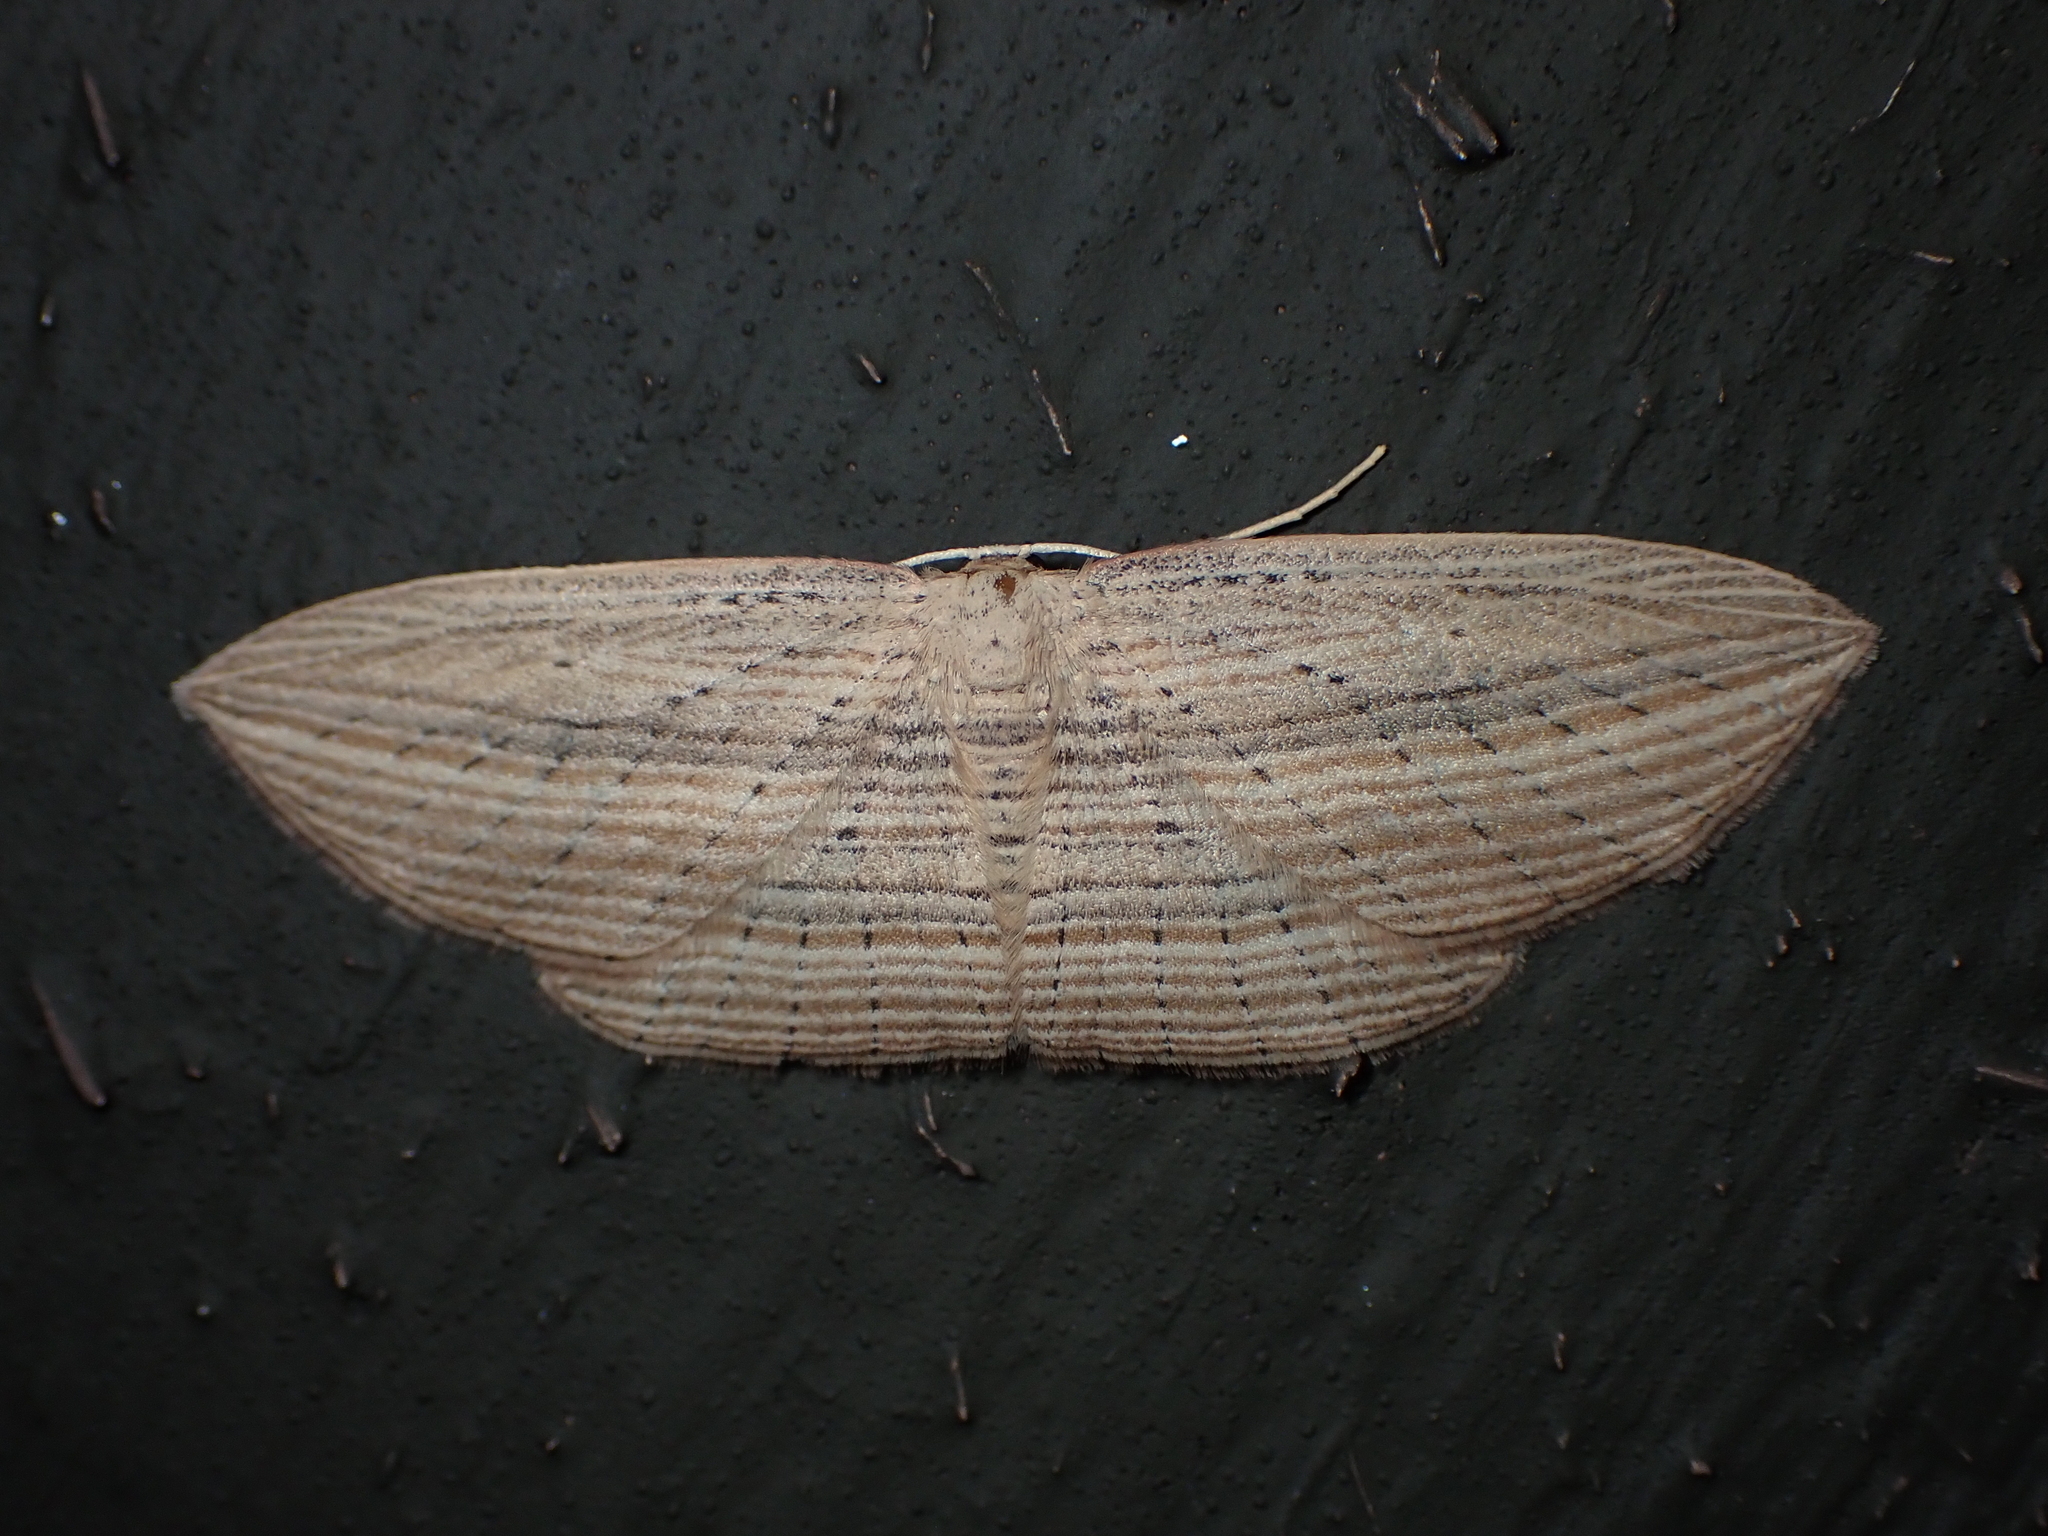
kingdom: Animalia
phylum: Arthropoda
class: Insecta
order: Lepidoptera
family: Geometridae
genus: Epiphryne
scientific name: Epiphryne verriculata
